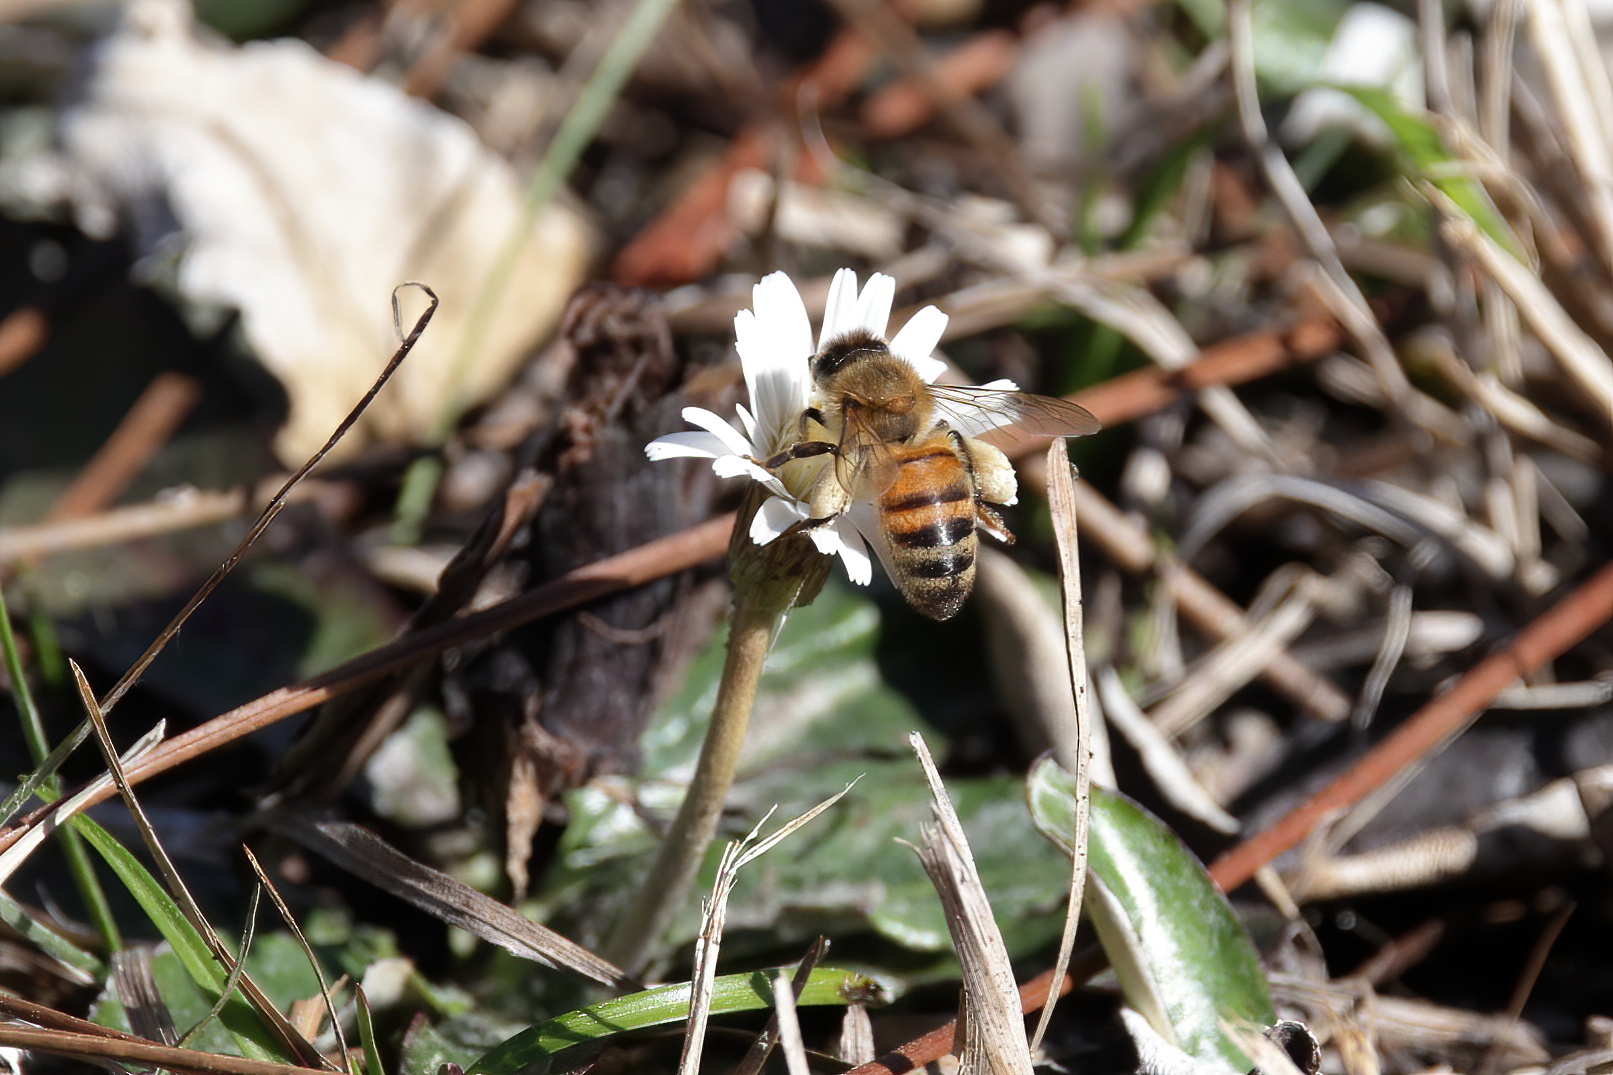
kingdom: Animalia
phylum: Arthropoda
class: Insecta
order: Hymenoptera
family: Apidae
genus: Apis
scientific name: Apis mellifera
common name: Honey bee
